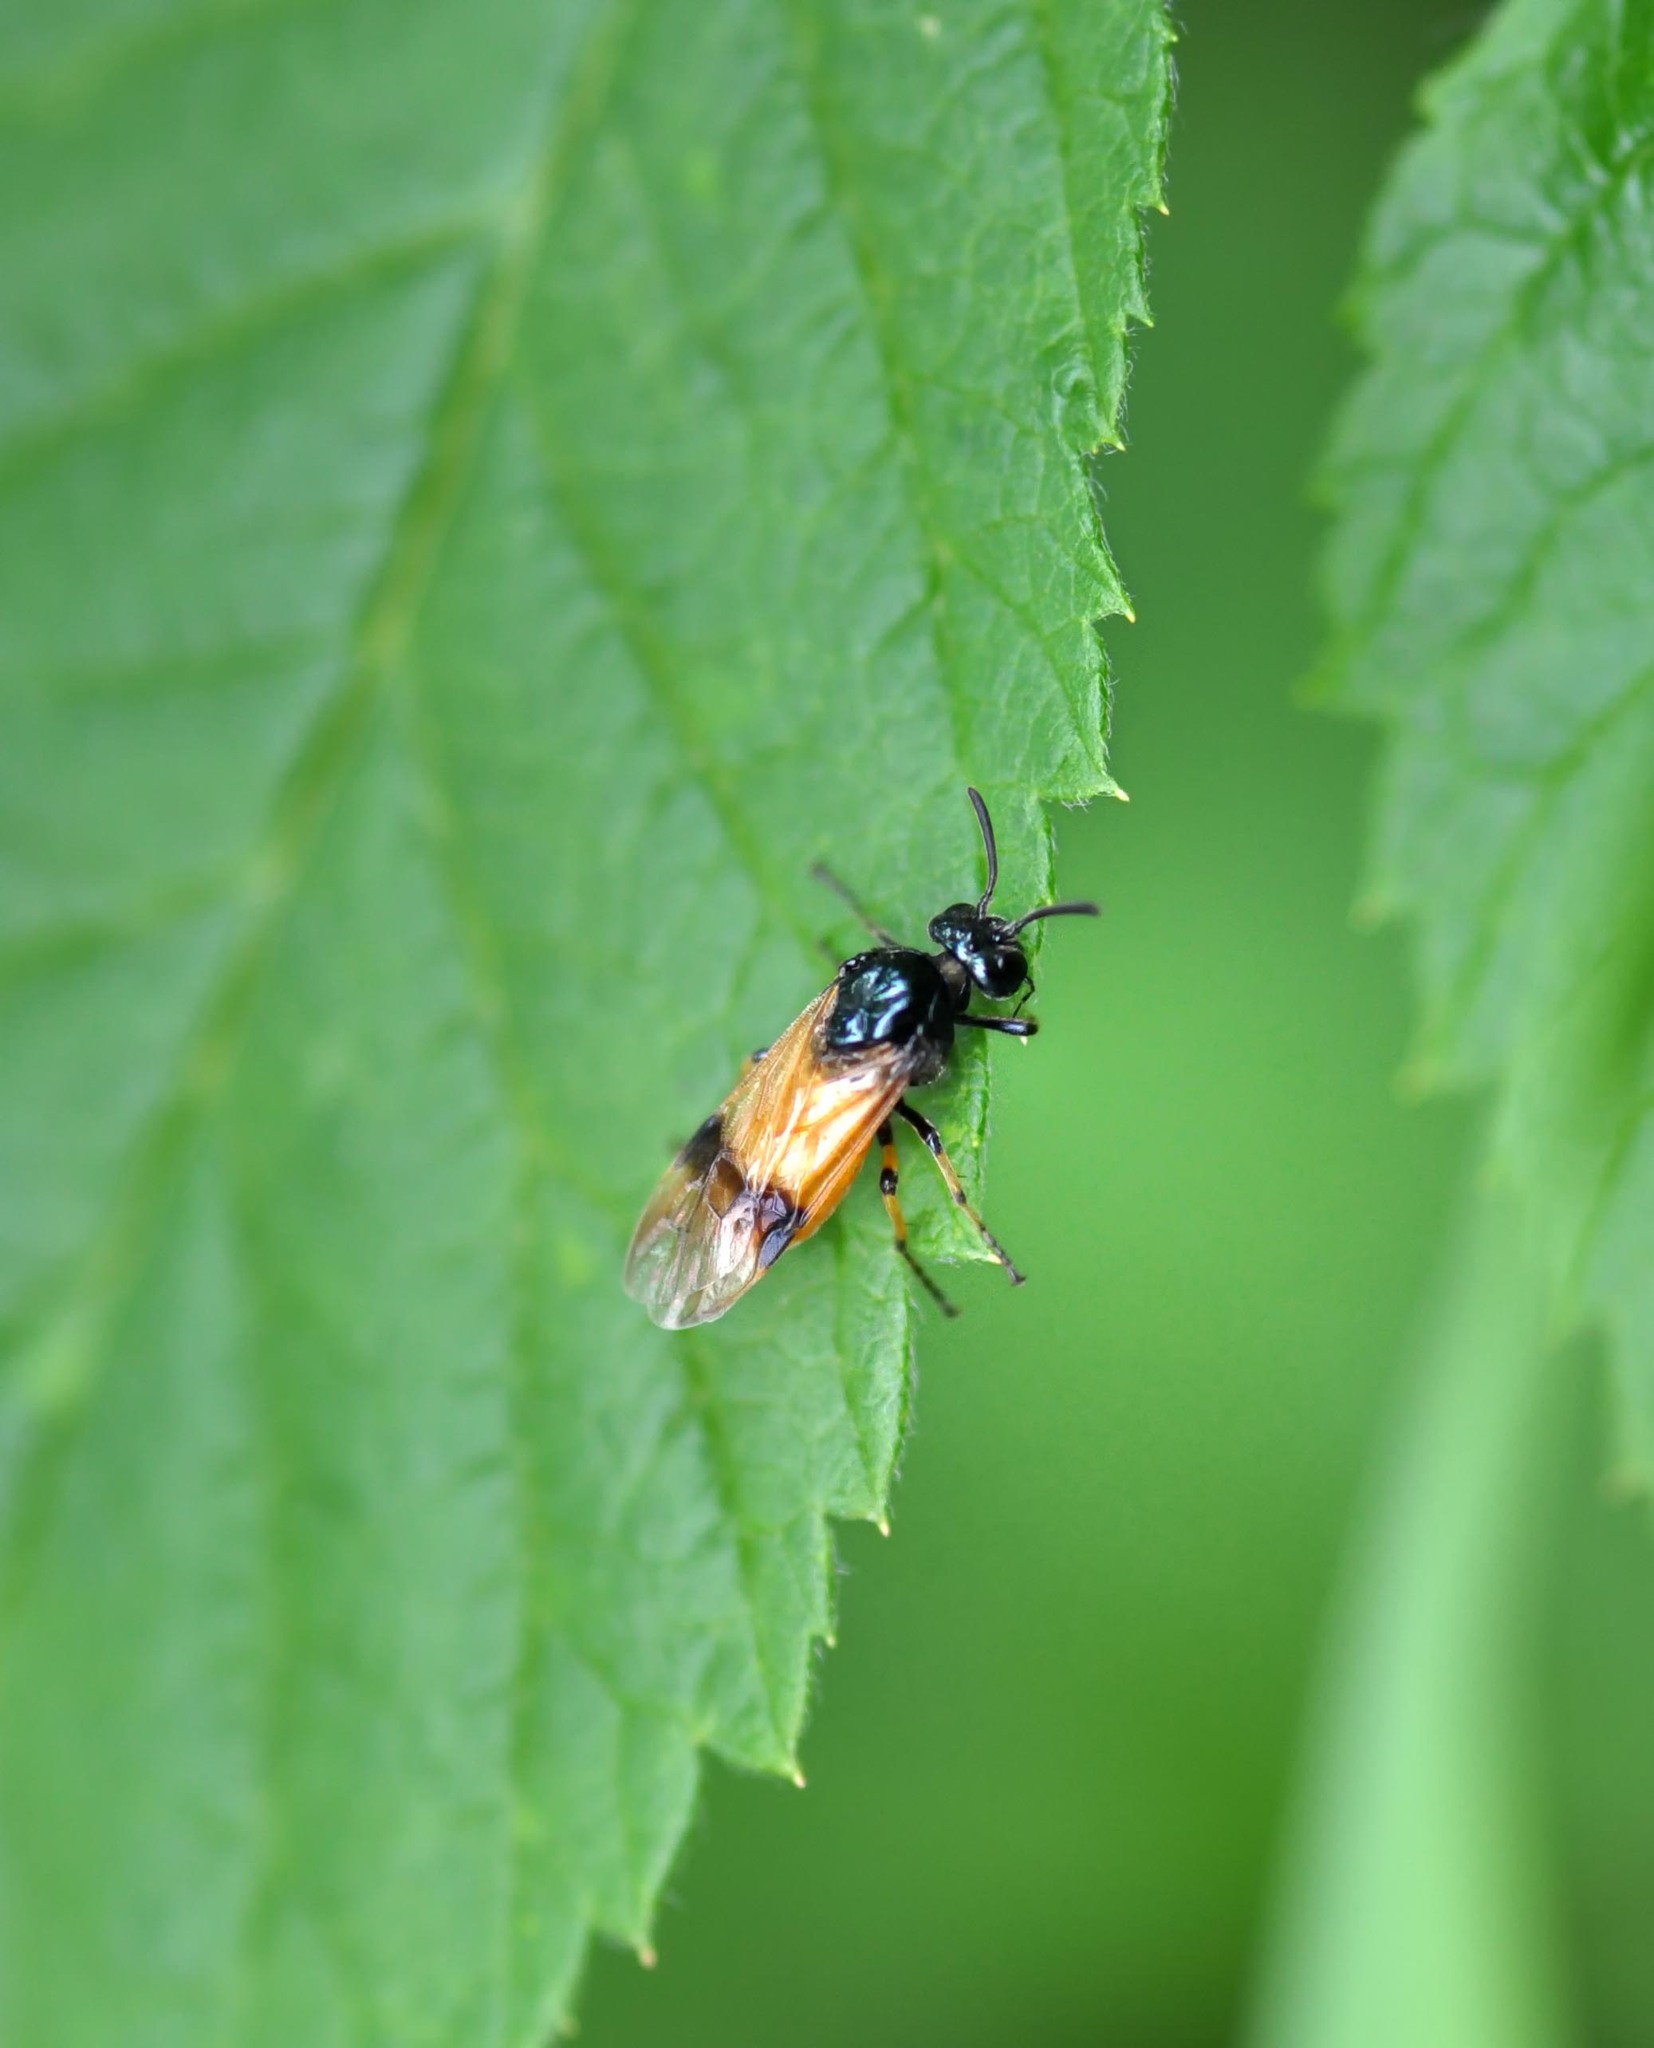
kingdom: Animalia
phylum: Arthropoda
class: Insecta
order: Hymenoptera
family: Argidae
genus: Arge
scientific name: Arge cyanocrocea
